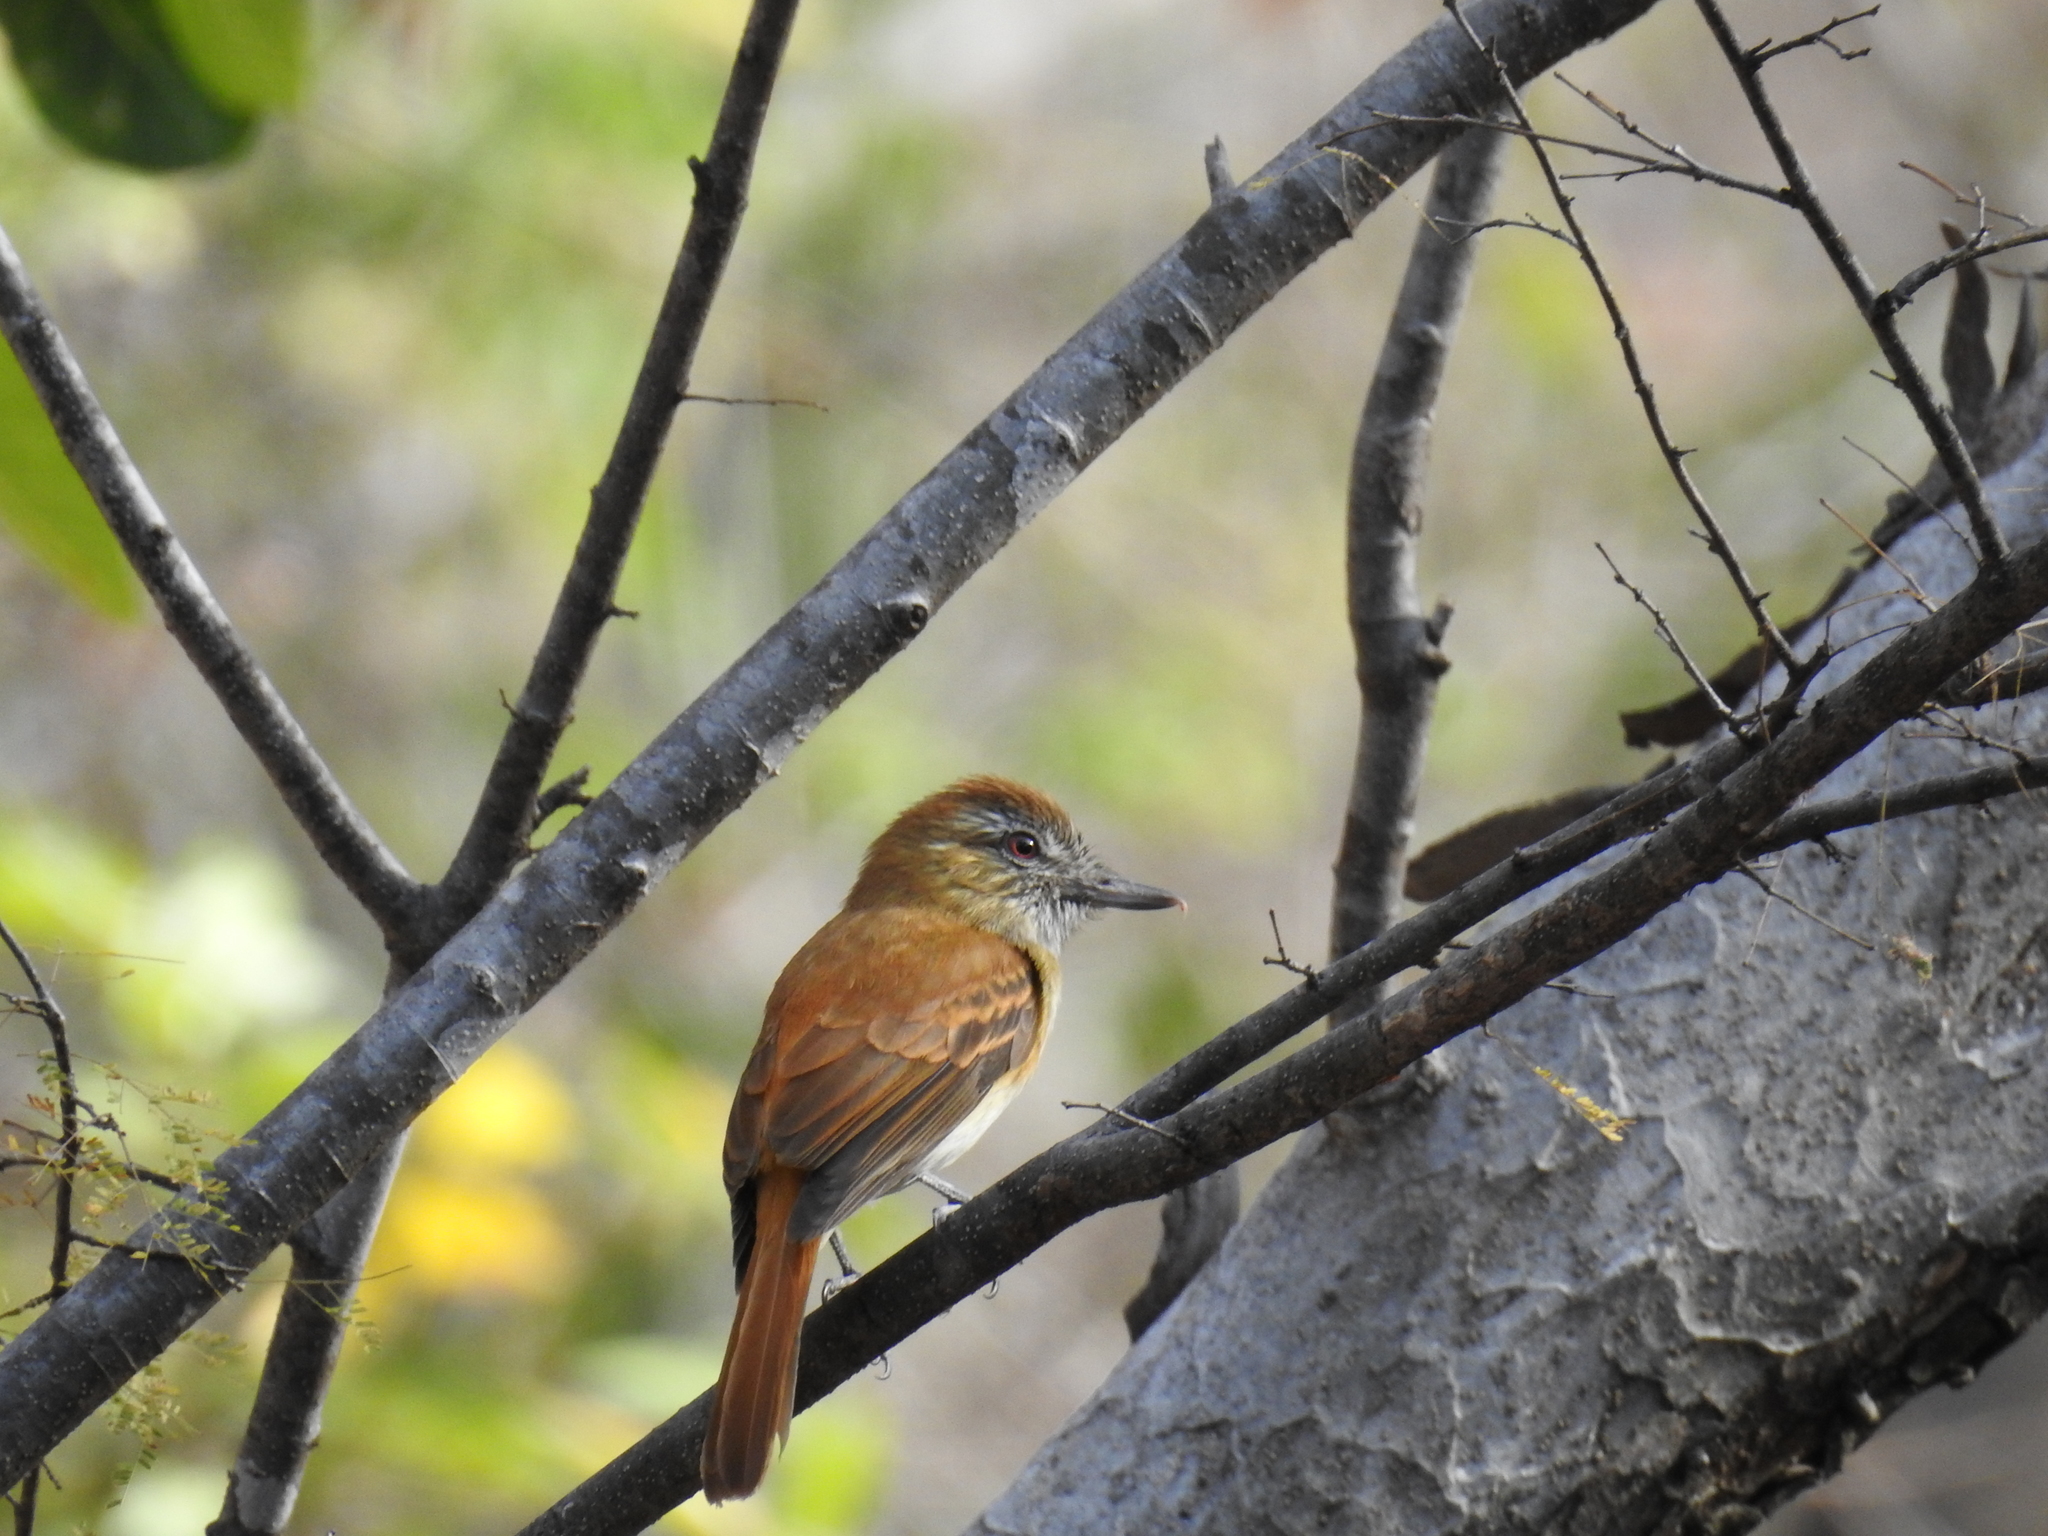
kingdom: Animalia
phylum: Chordata
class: Aves
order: Passeriformes
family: Tyrannidae
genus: Attila
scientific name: Attila spadiceus
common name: Bright-rumped attila
